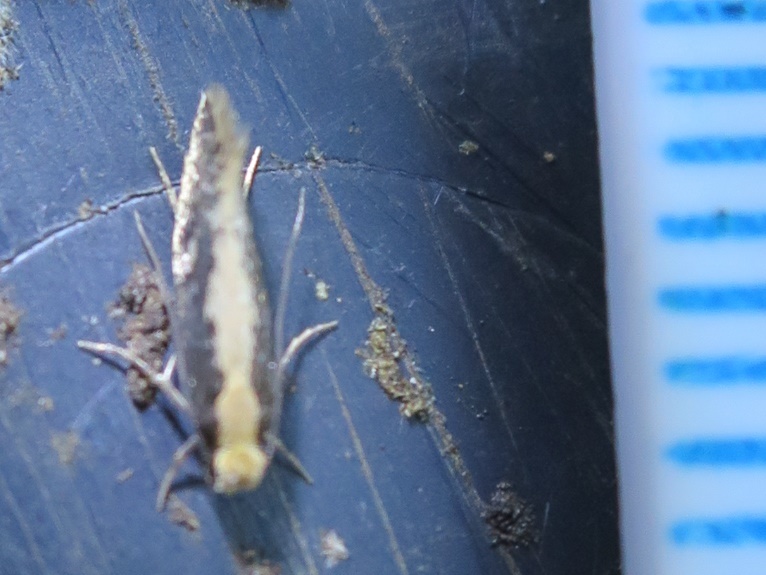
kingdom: Animalia
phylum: Arthropoda
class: Insecta
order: Lepidoptera
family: Tineidae
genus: Monopis
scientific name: Monopis crocicapitella
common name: Moth
